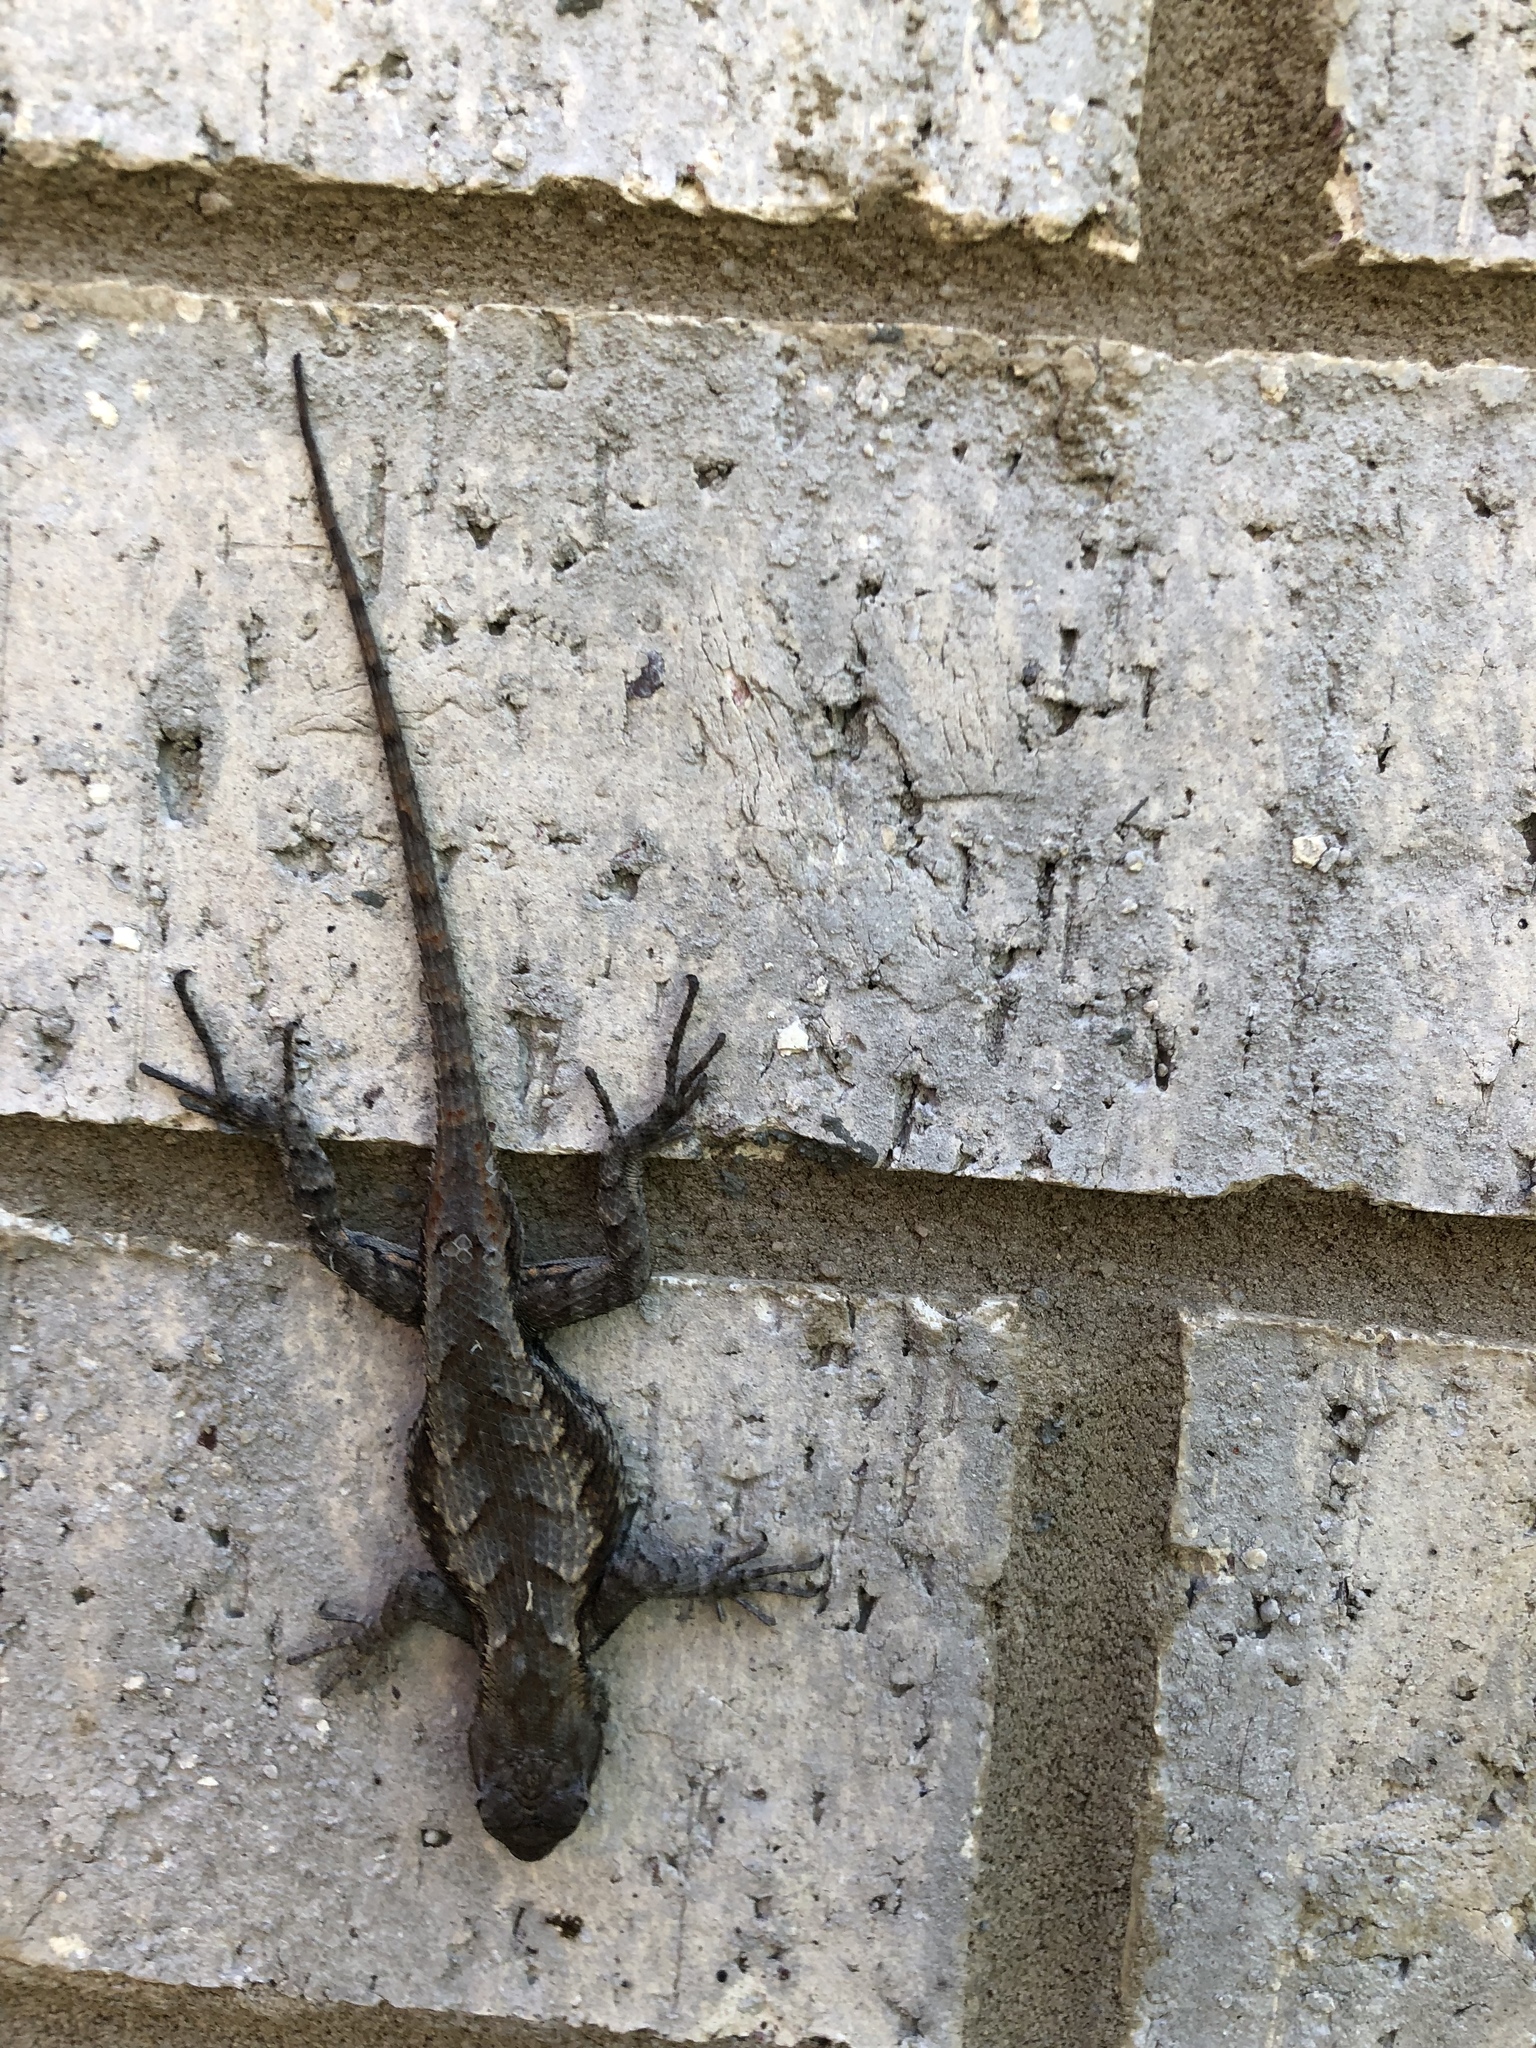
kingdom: Animalia
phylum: Chordata
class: Squamata
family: Phrynosomatidae
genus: Sceloporus
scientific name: Sceloporus consobrinus
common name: Southern prairie lizard
